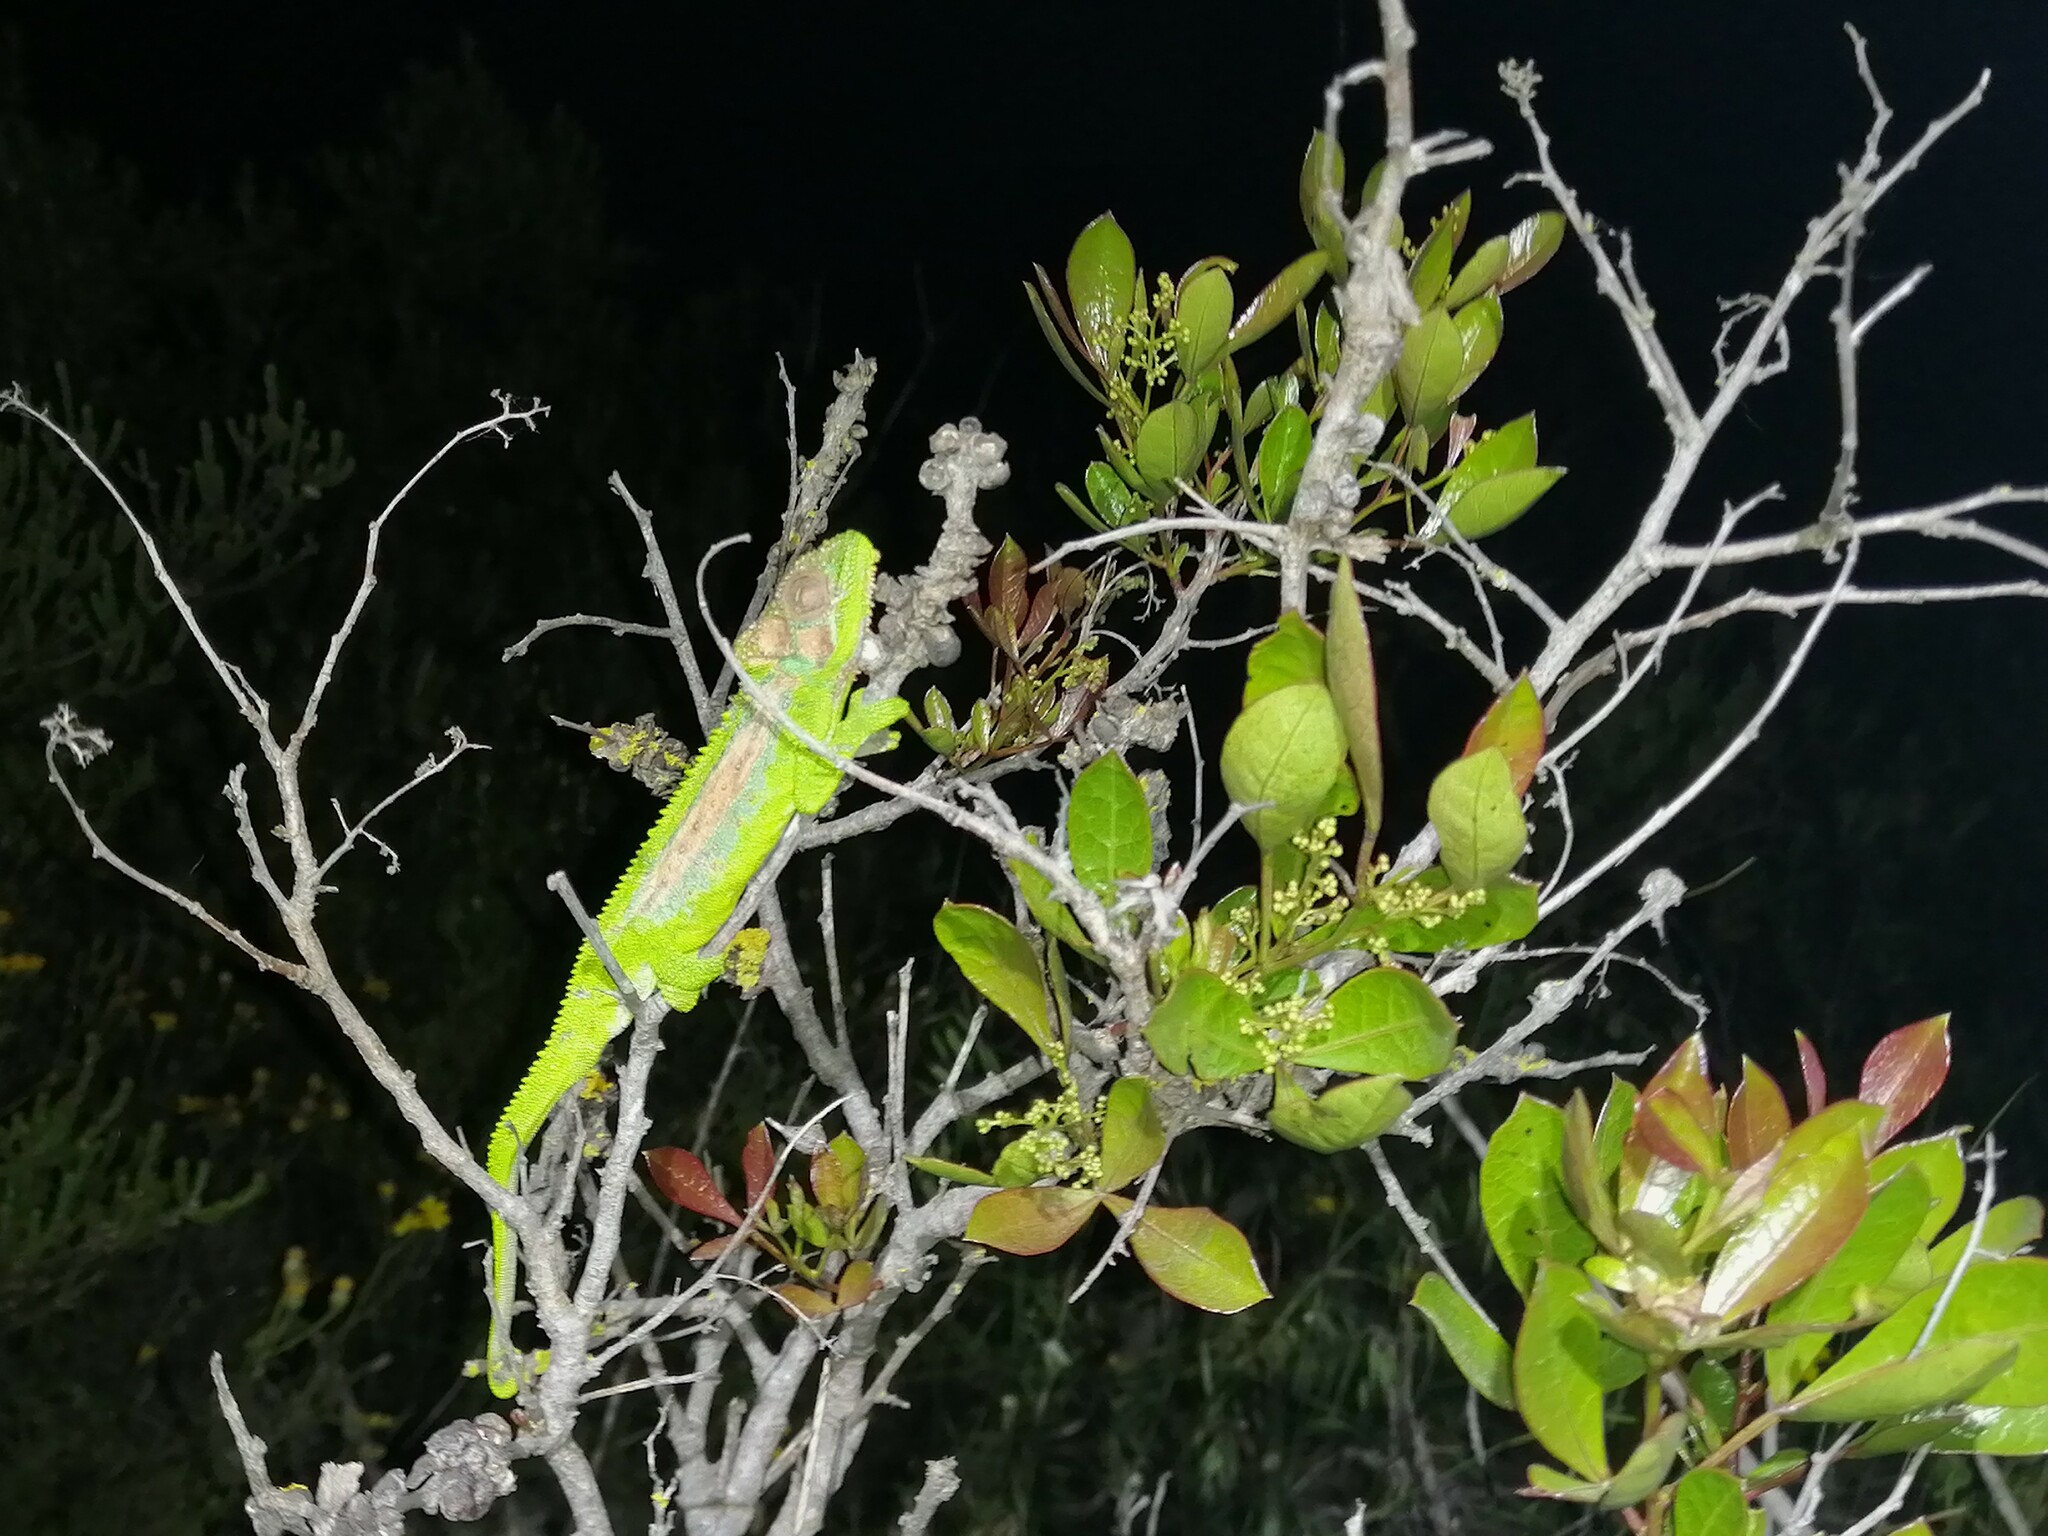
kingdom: Animalia
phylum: Chordata
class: Squamata
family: Chamaeleonidae
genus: Bradypodion
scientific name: Bradypodion pumilum
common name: Cape dwarf chameleon
